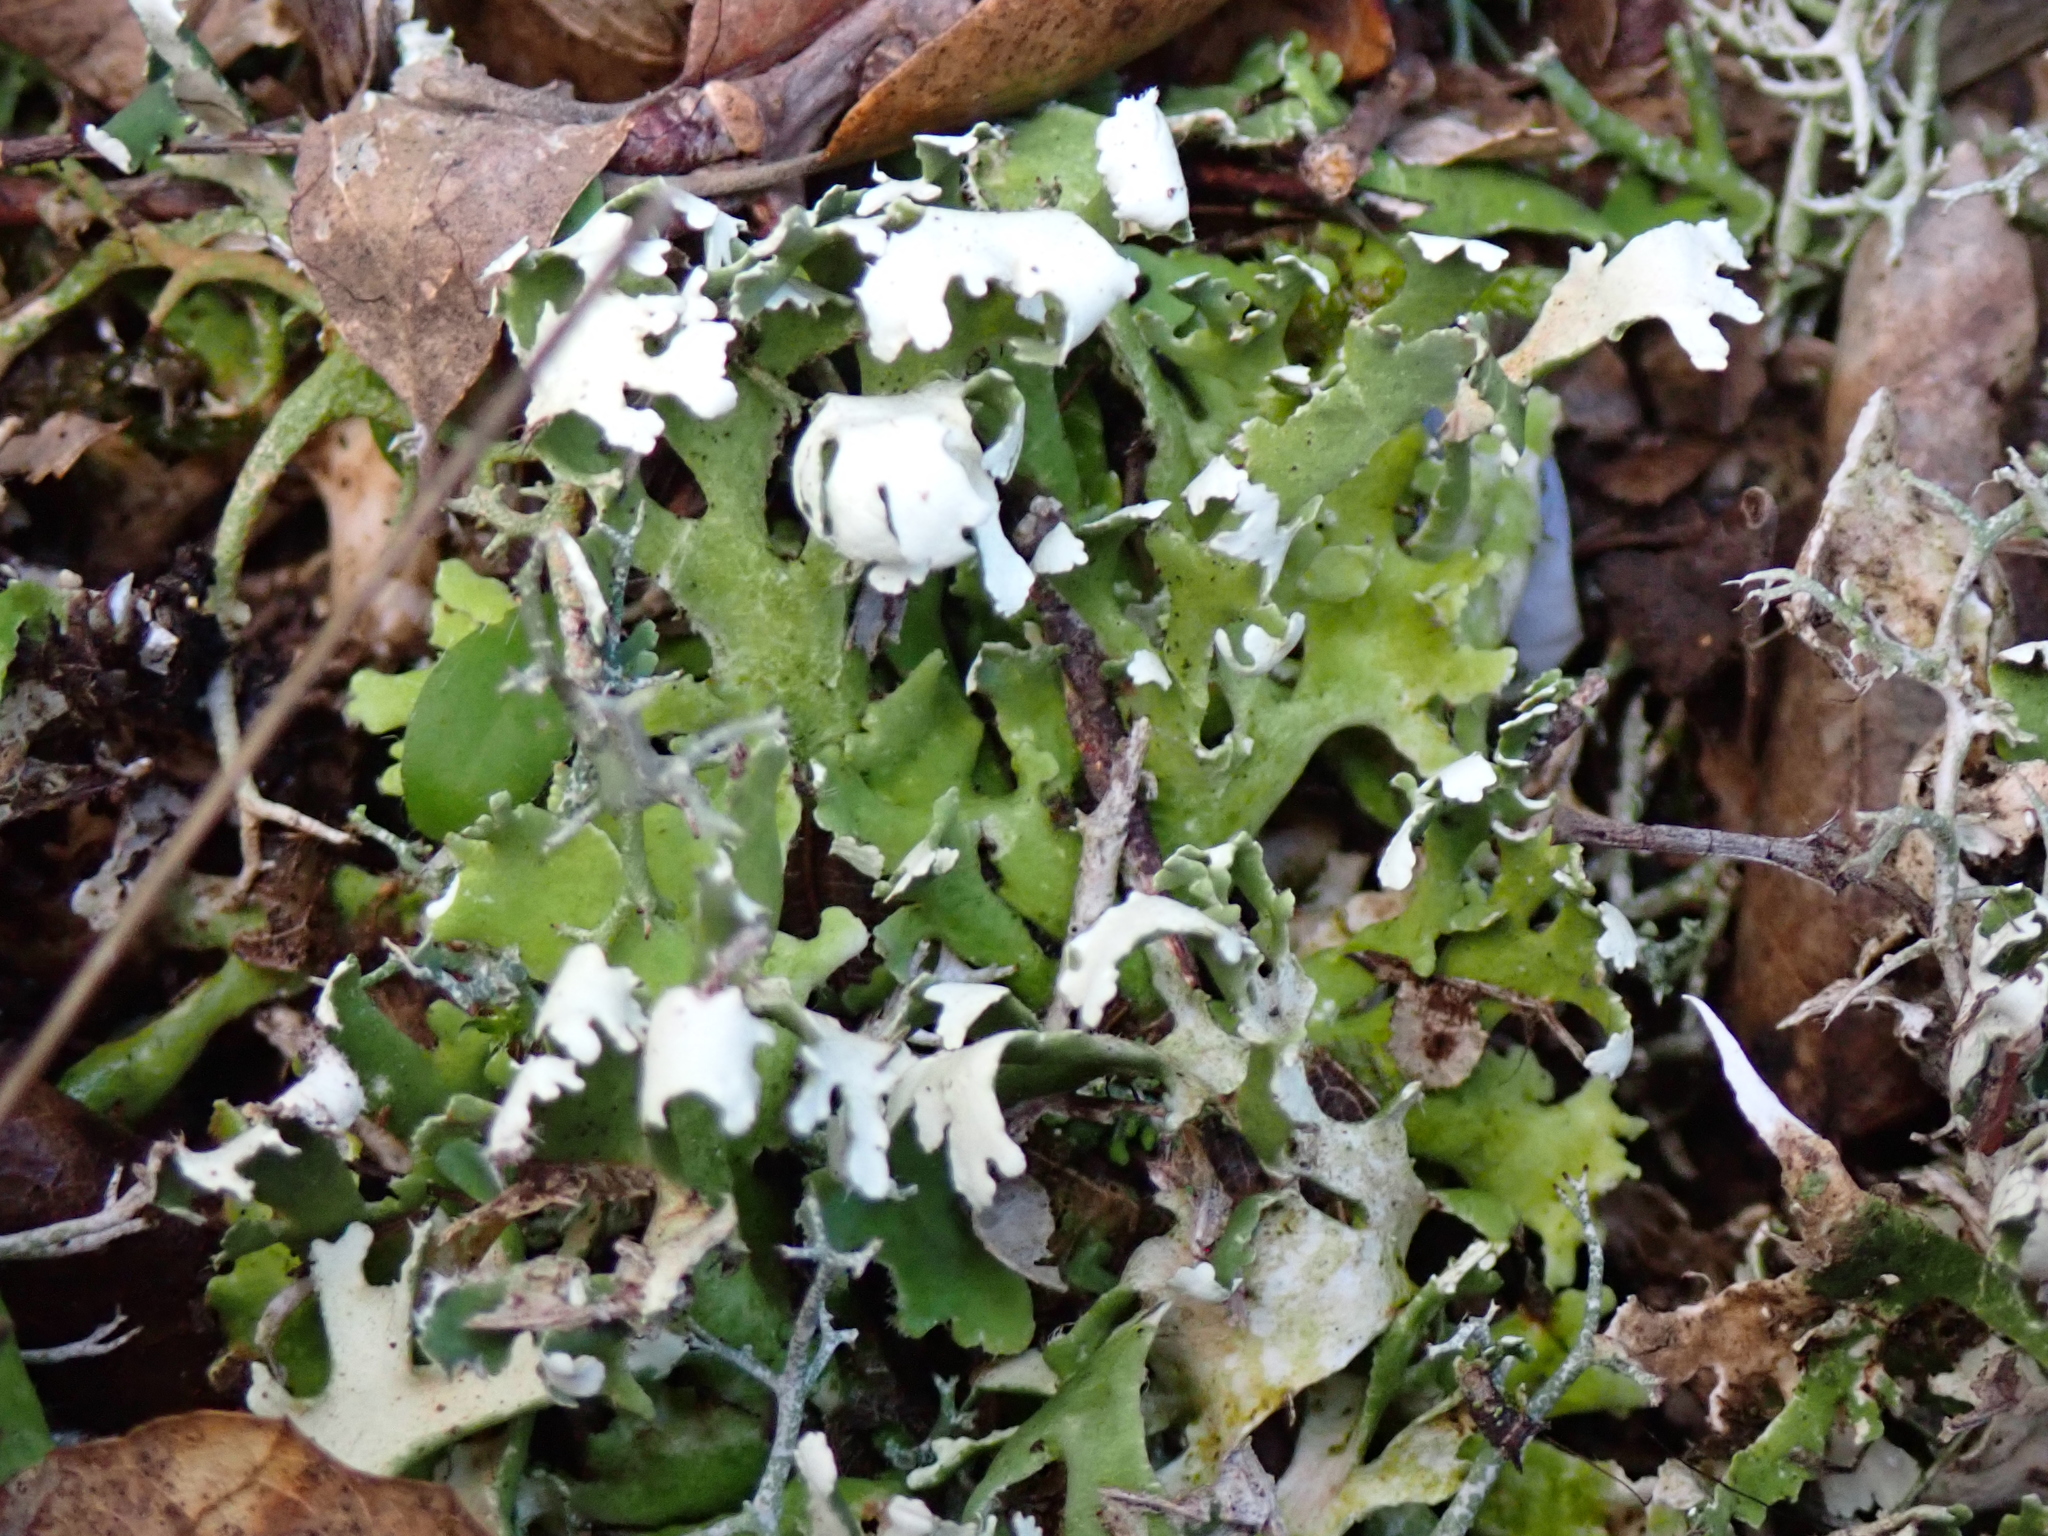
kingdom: Fungi
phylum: Ascomycota
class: Lecanoromycetes
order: Lecanorales
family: Cladoniaceae
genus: Cladonia
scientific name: Cladonia foliacea
